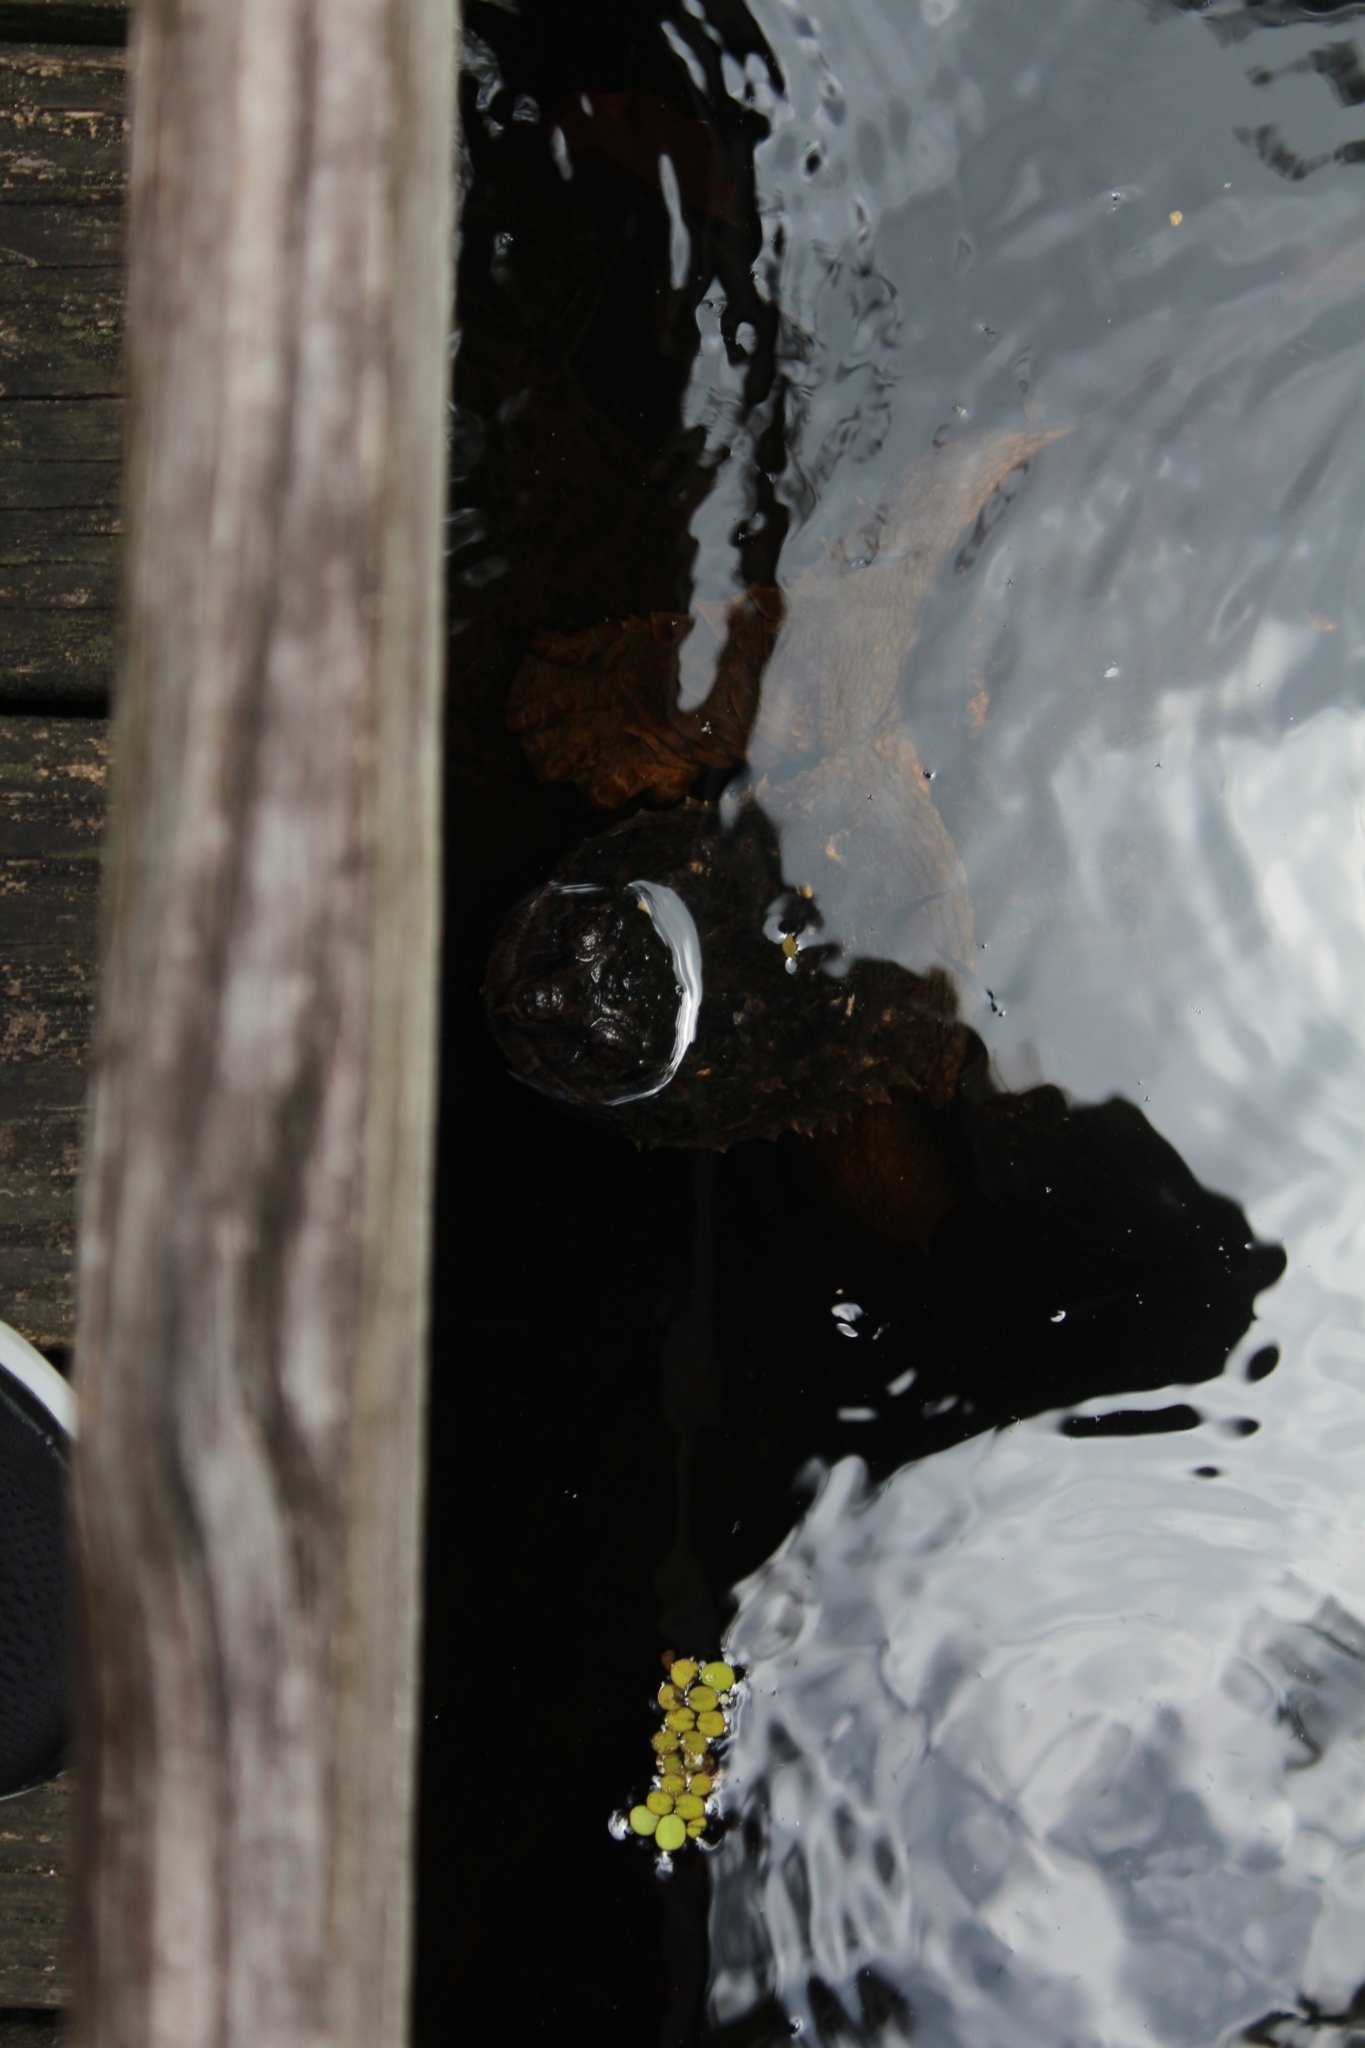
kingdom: Animalia
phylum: Chordata
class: Testudines
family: Chelydridae
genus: Chelydra
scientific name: Chelydra serpentina
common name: Common snapping turtle
